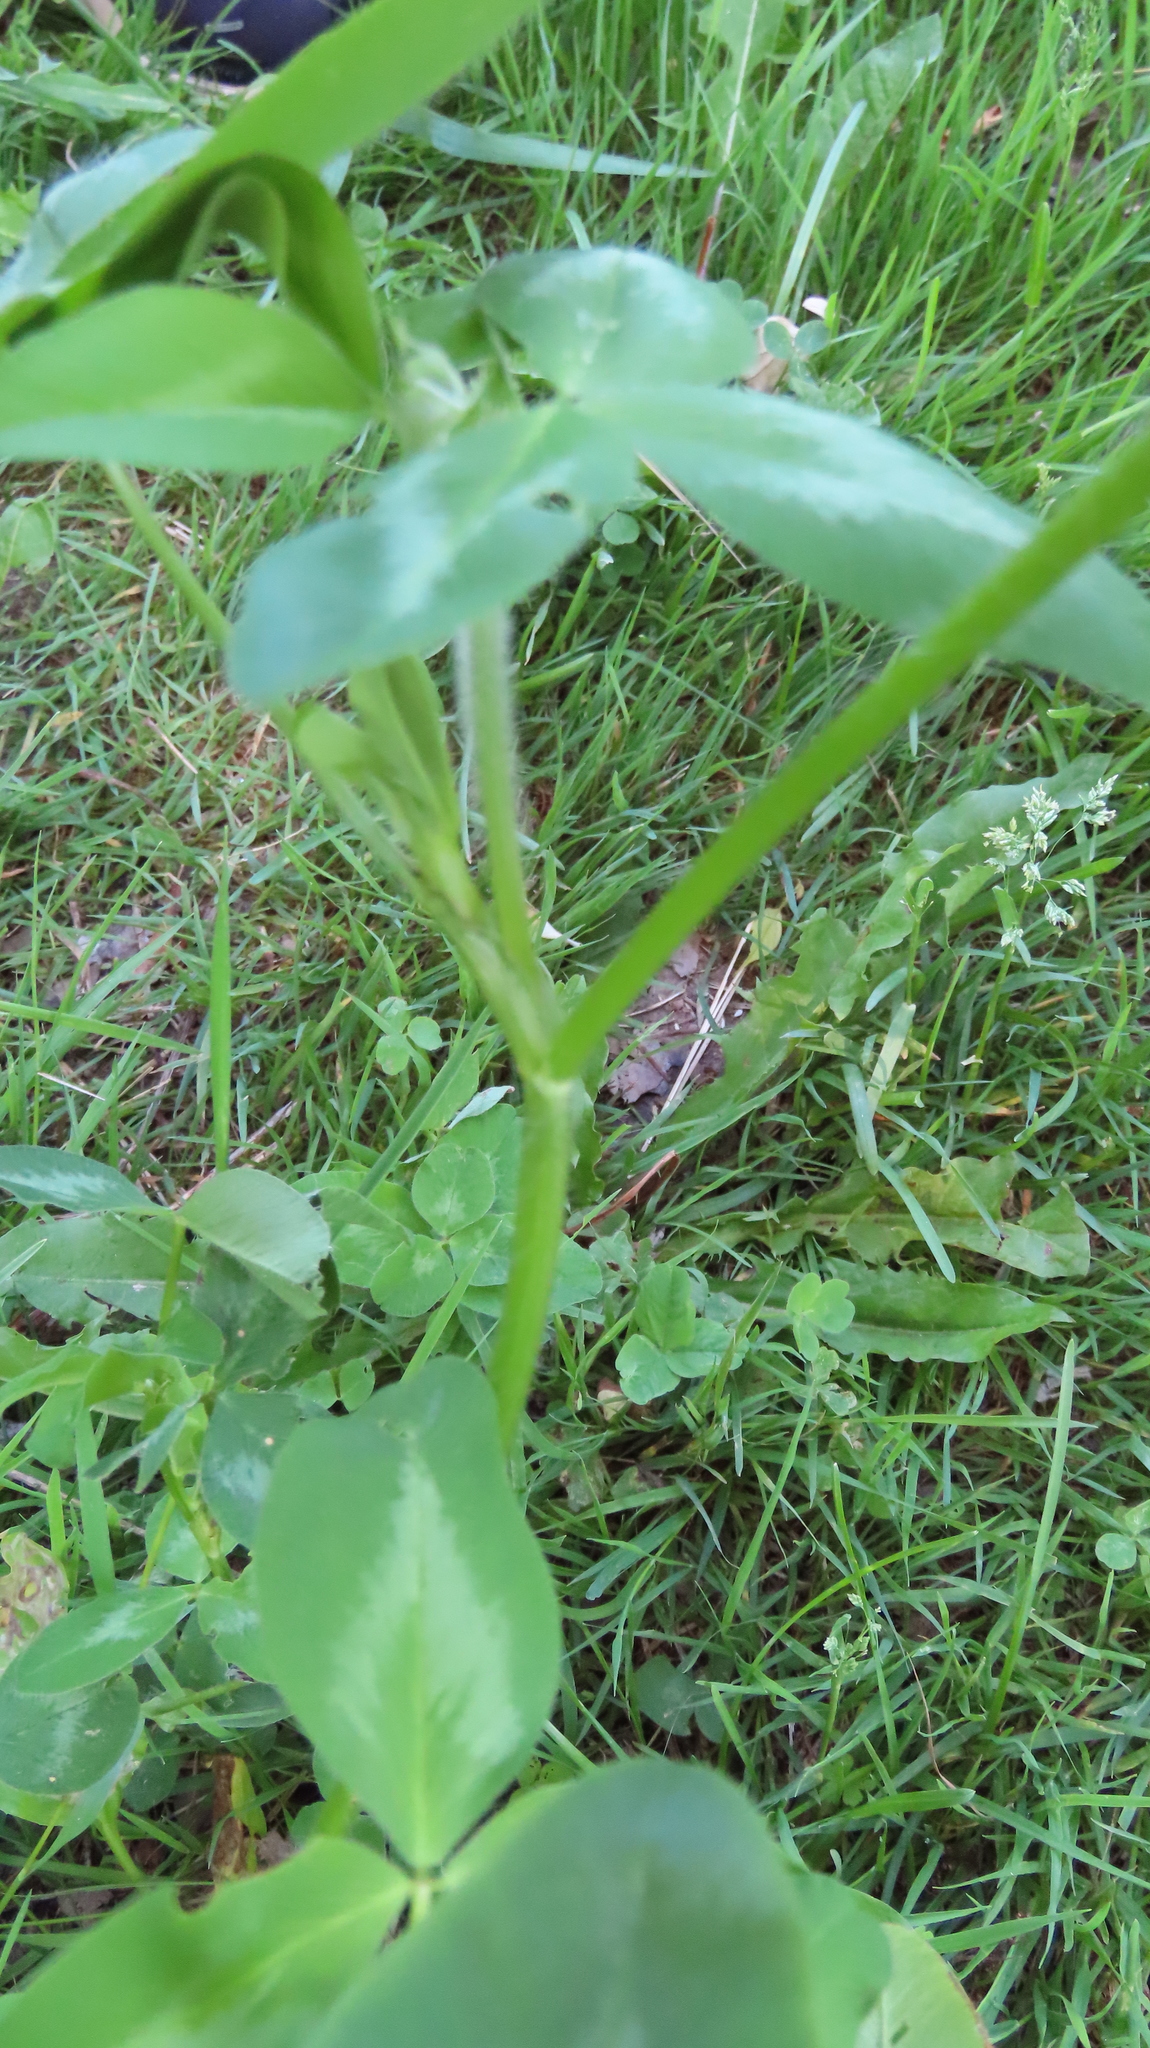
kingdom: Plantae
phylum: Tracheophyta
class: Magnoliopsida
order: Fabales
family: Fabaceae
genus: Trifolium
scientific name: Trifolium pratense
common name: Red clover
